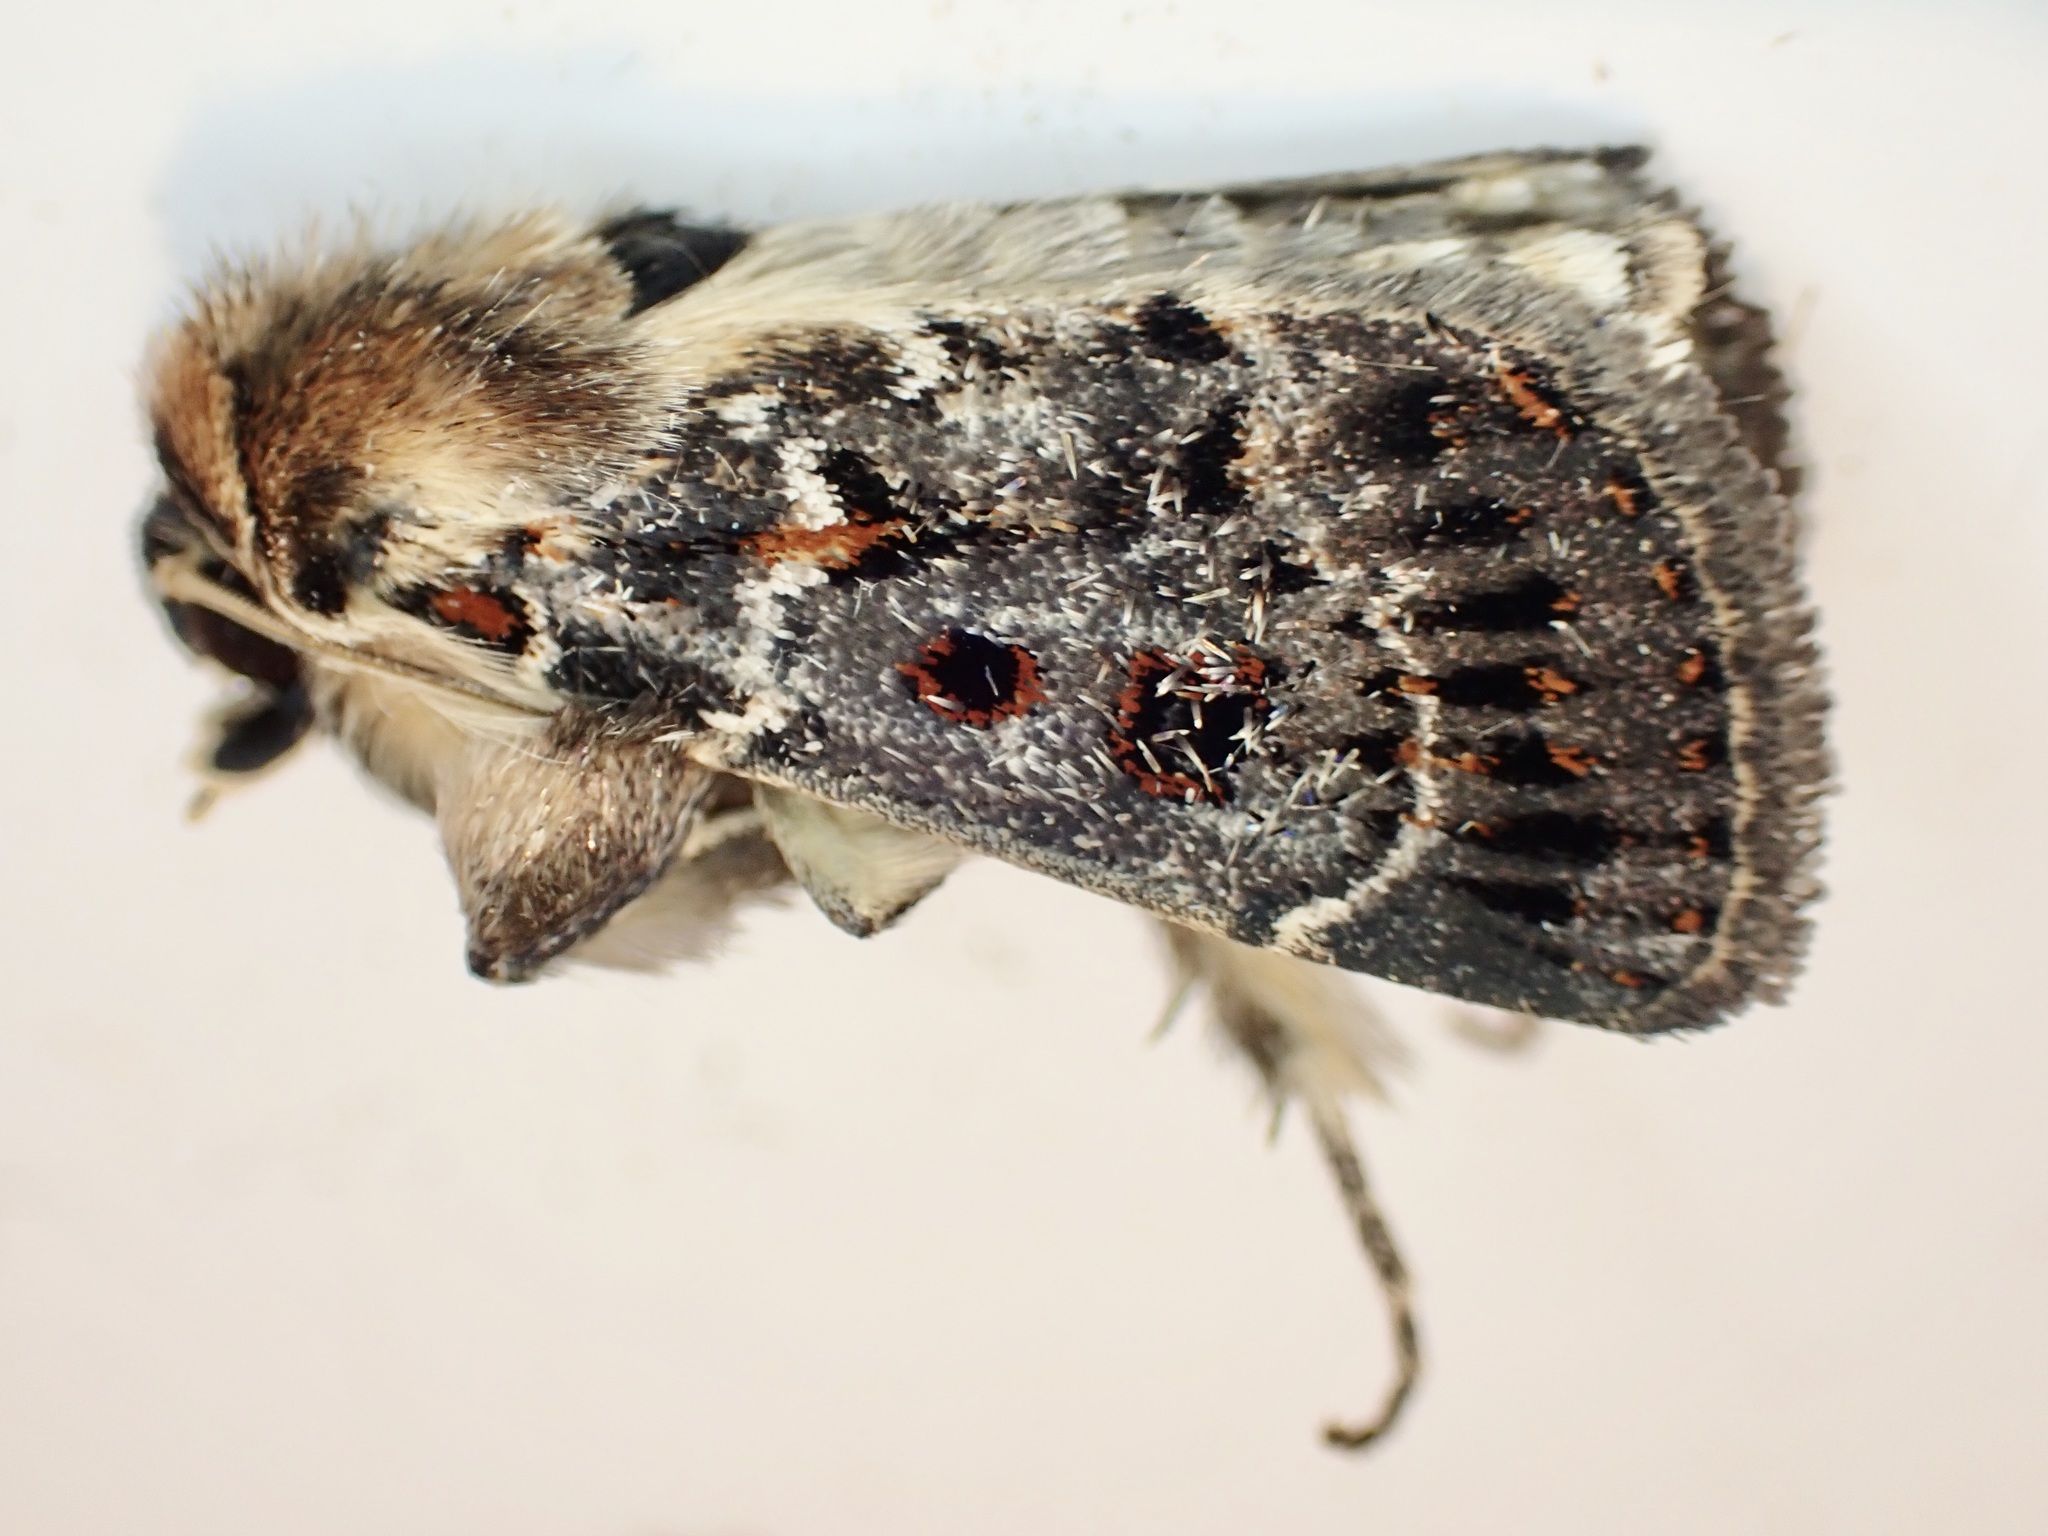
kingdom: Animalia
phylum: Arthropoda
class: Insecta
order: Lepidoptera
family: Noctuidae
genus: Proteuxoa
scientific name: Proteuxoa sanguinipuncta
